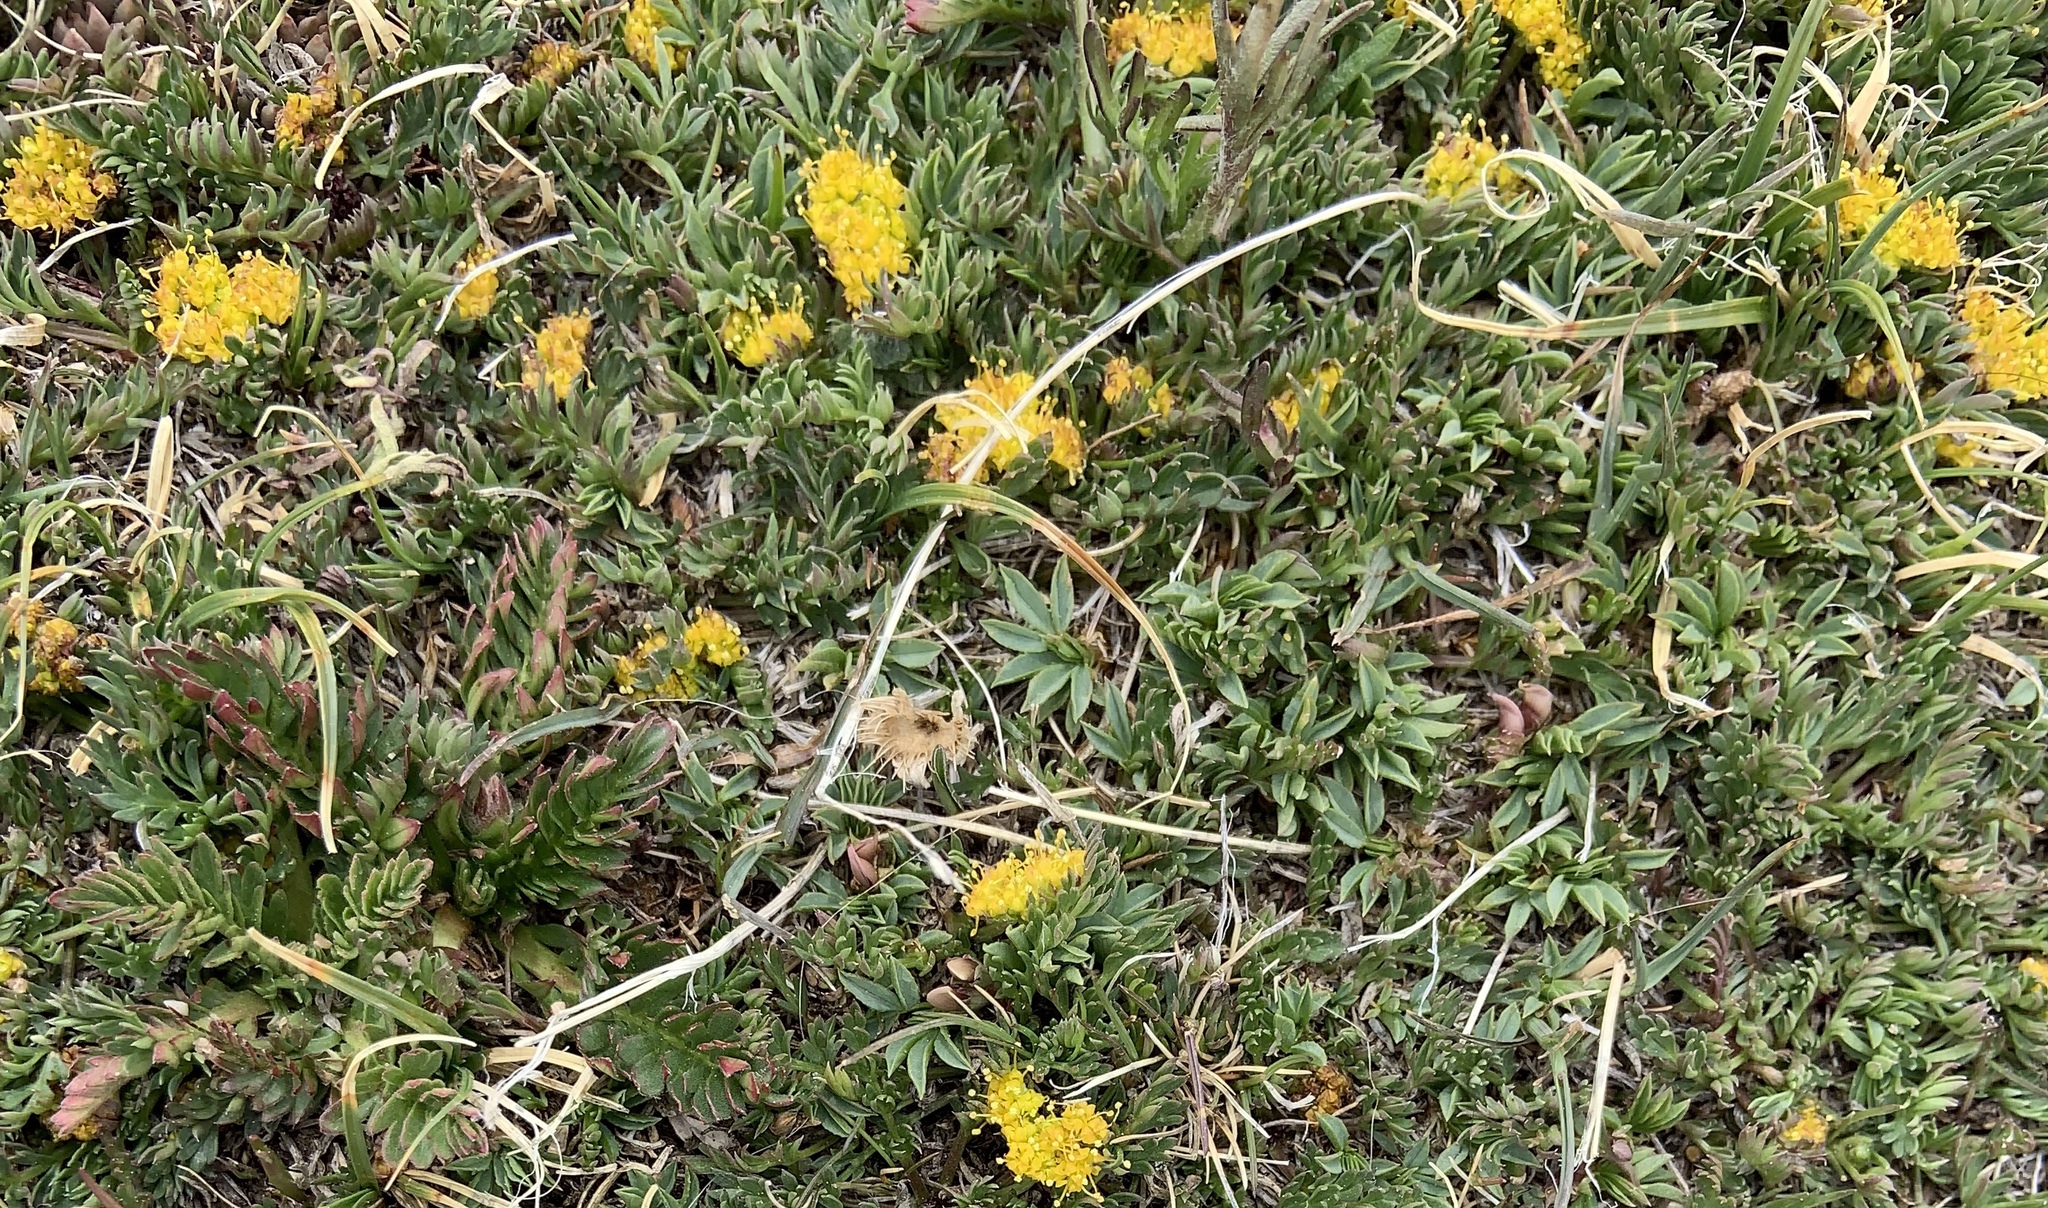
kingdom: Plantae
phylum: Tracheophyta
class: Magnoliopsida
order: Apiales
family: Apiaceae
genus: Oreoxis
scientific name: Oreoxis alpina
